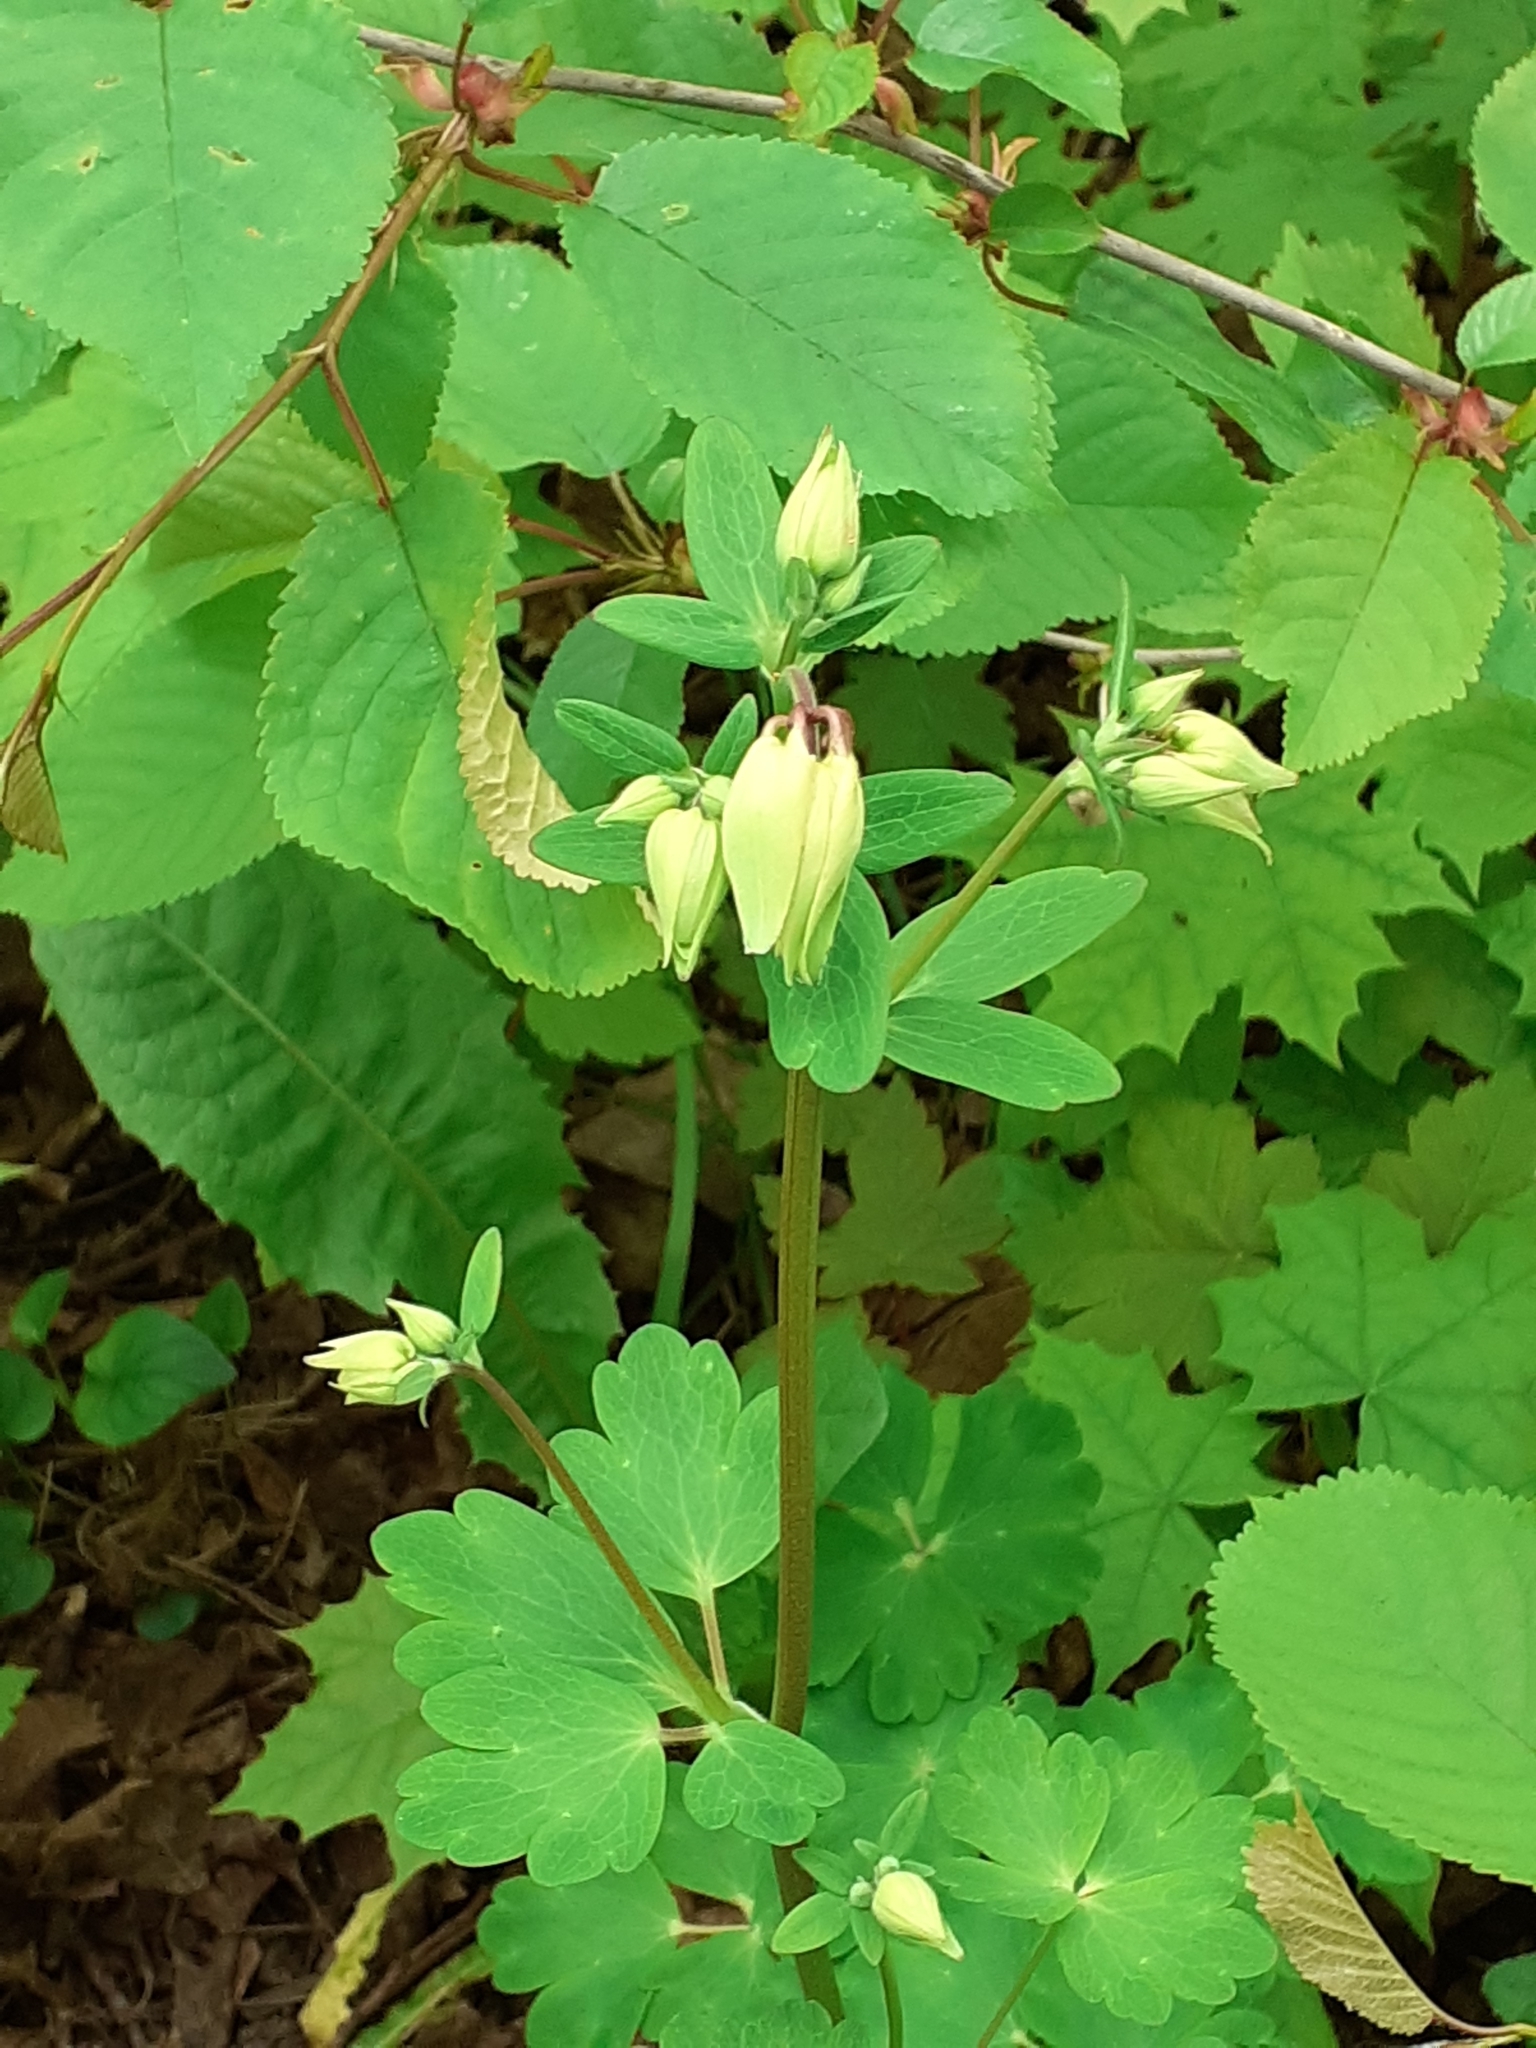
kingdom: Plantae
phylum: Tracheophyta
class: Magnoliopsida
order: Ranunculales
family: Ranunculaceae
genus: Aquilegia
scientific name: Aquilegia vulgaris
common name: Columbine
